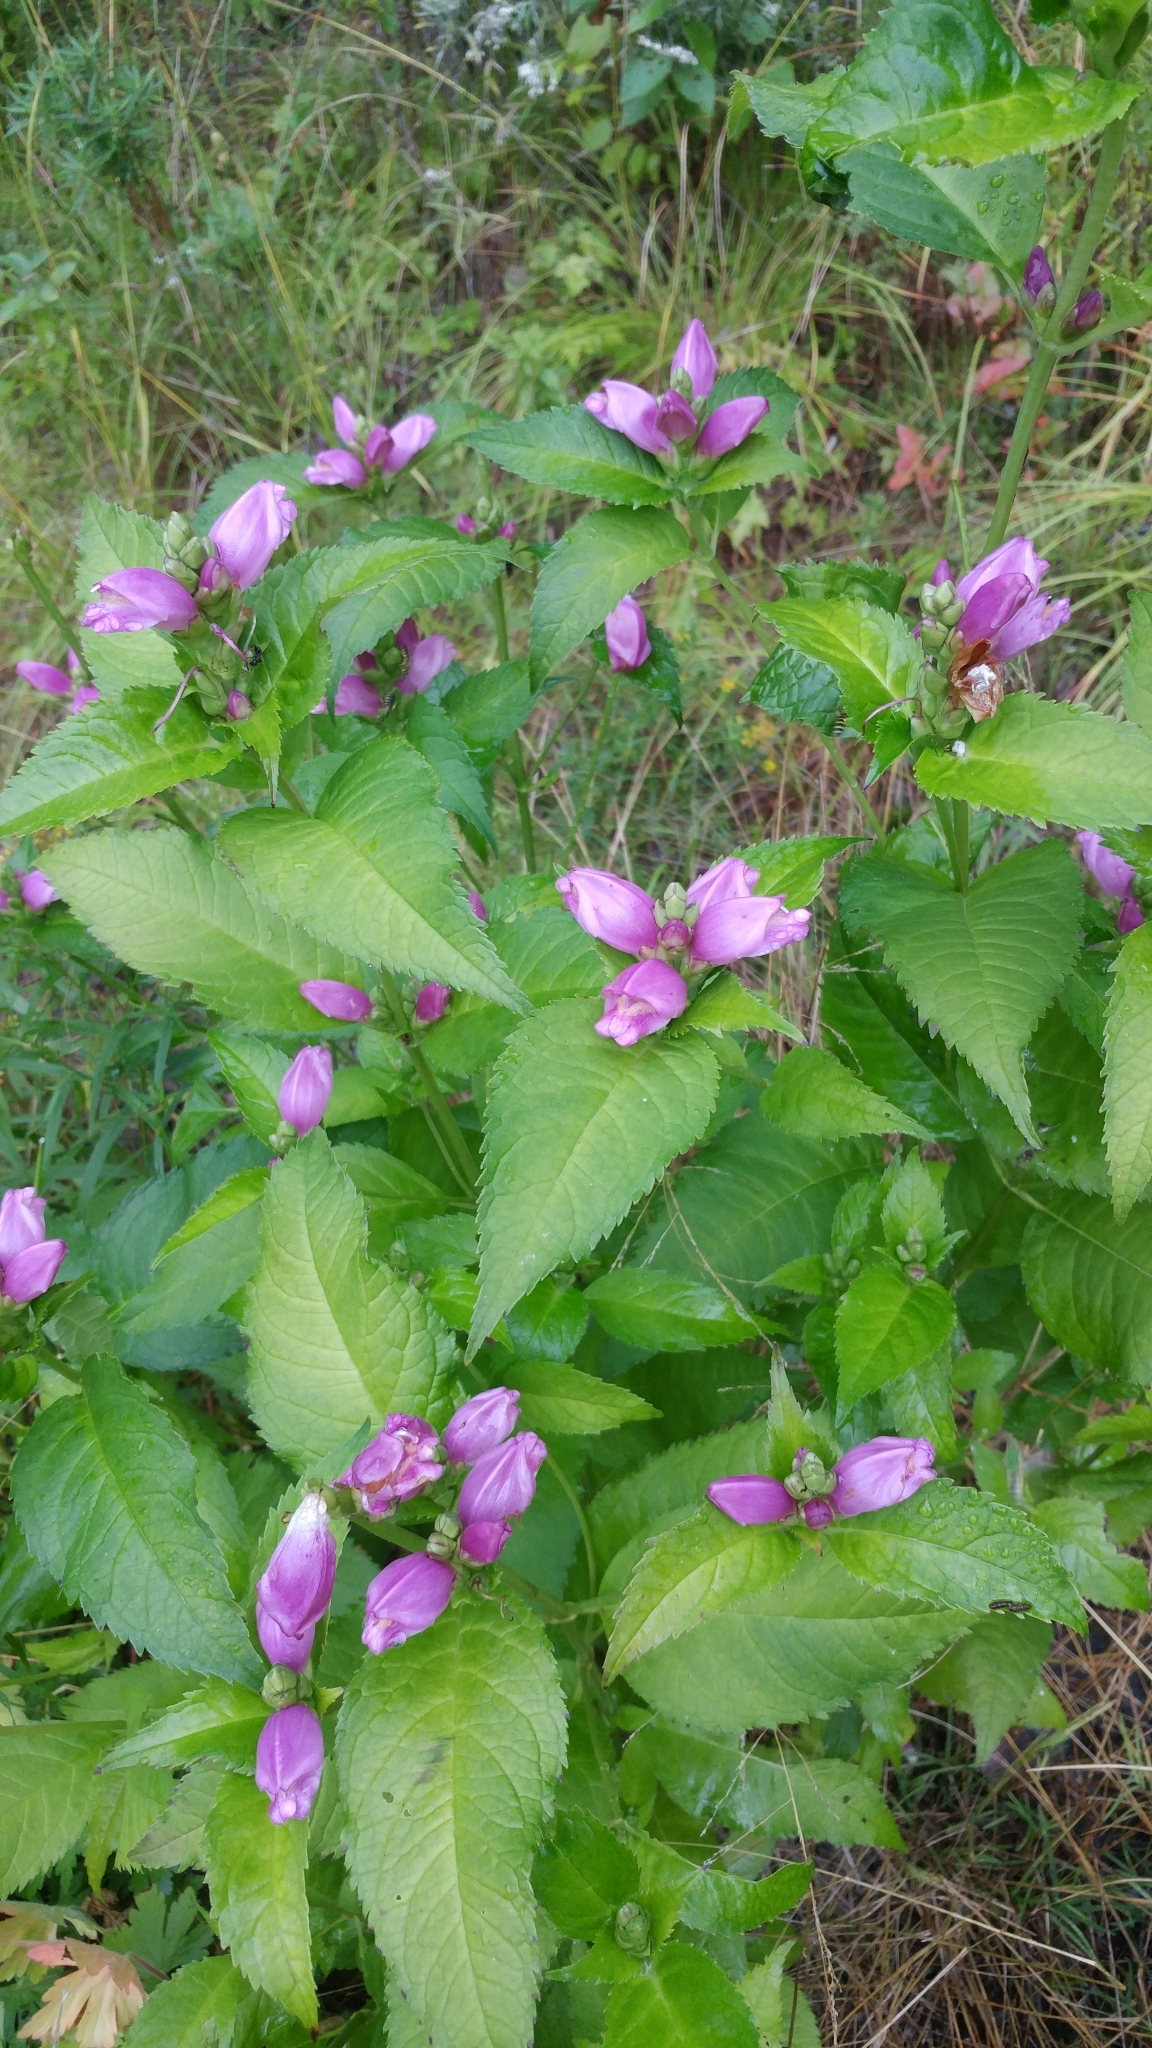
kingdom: Plantae
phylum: Tracheophyta
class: Magnoliopsida
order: Lamiales
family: Plantaginaceae
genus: Chelone
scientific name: Chelone lyonii
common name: Pink turtlehead
